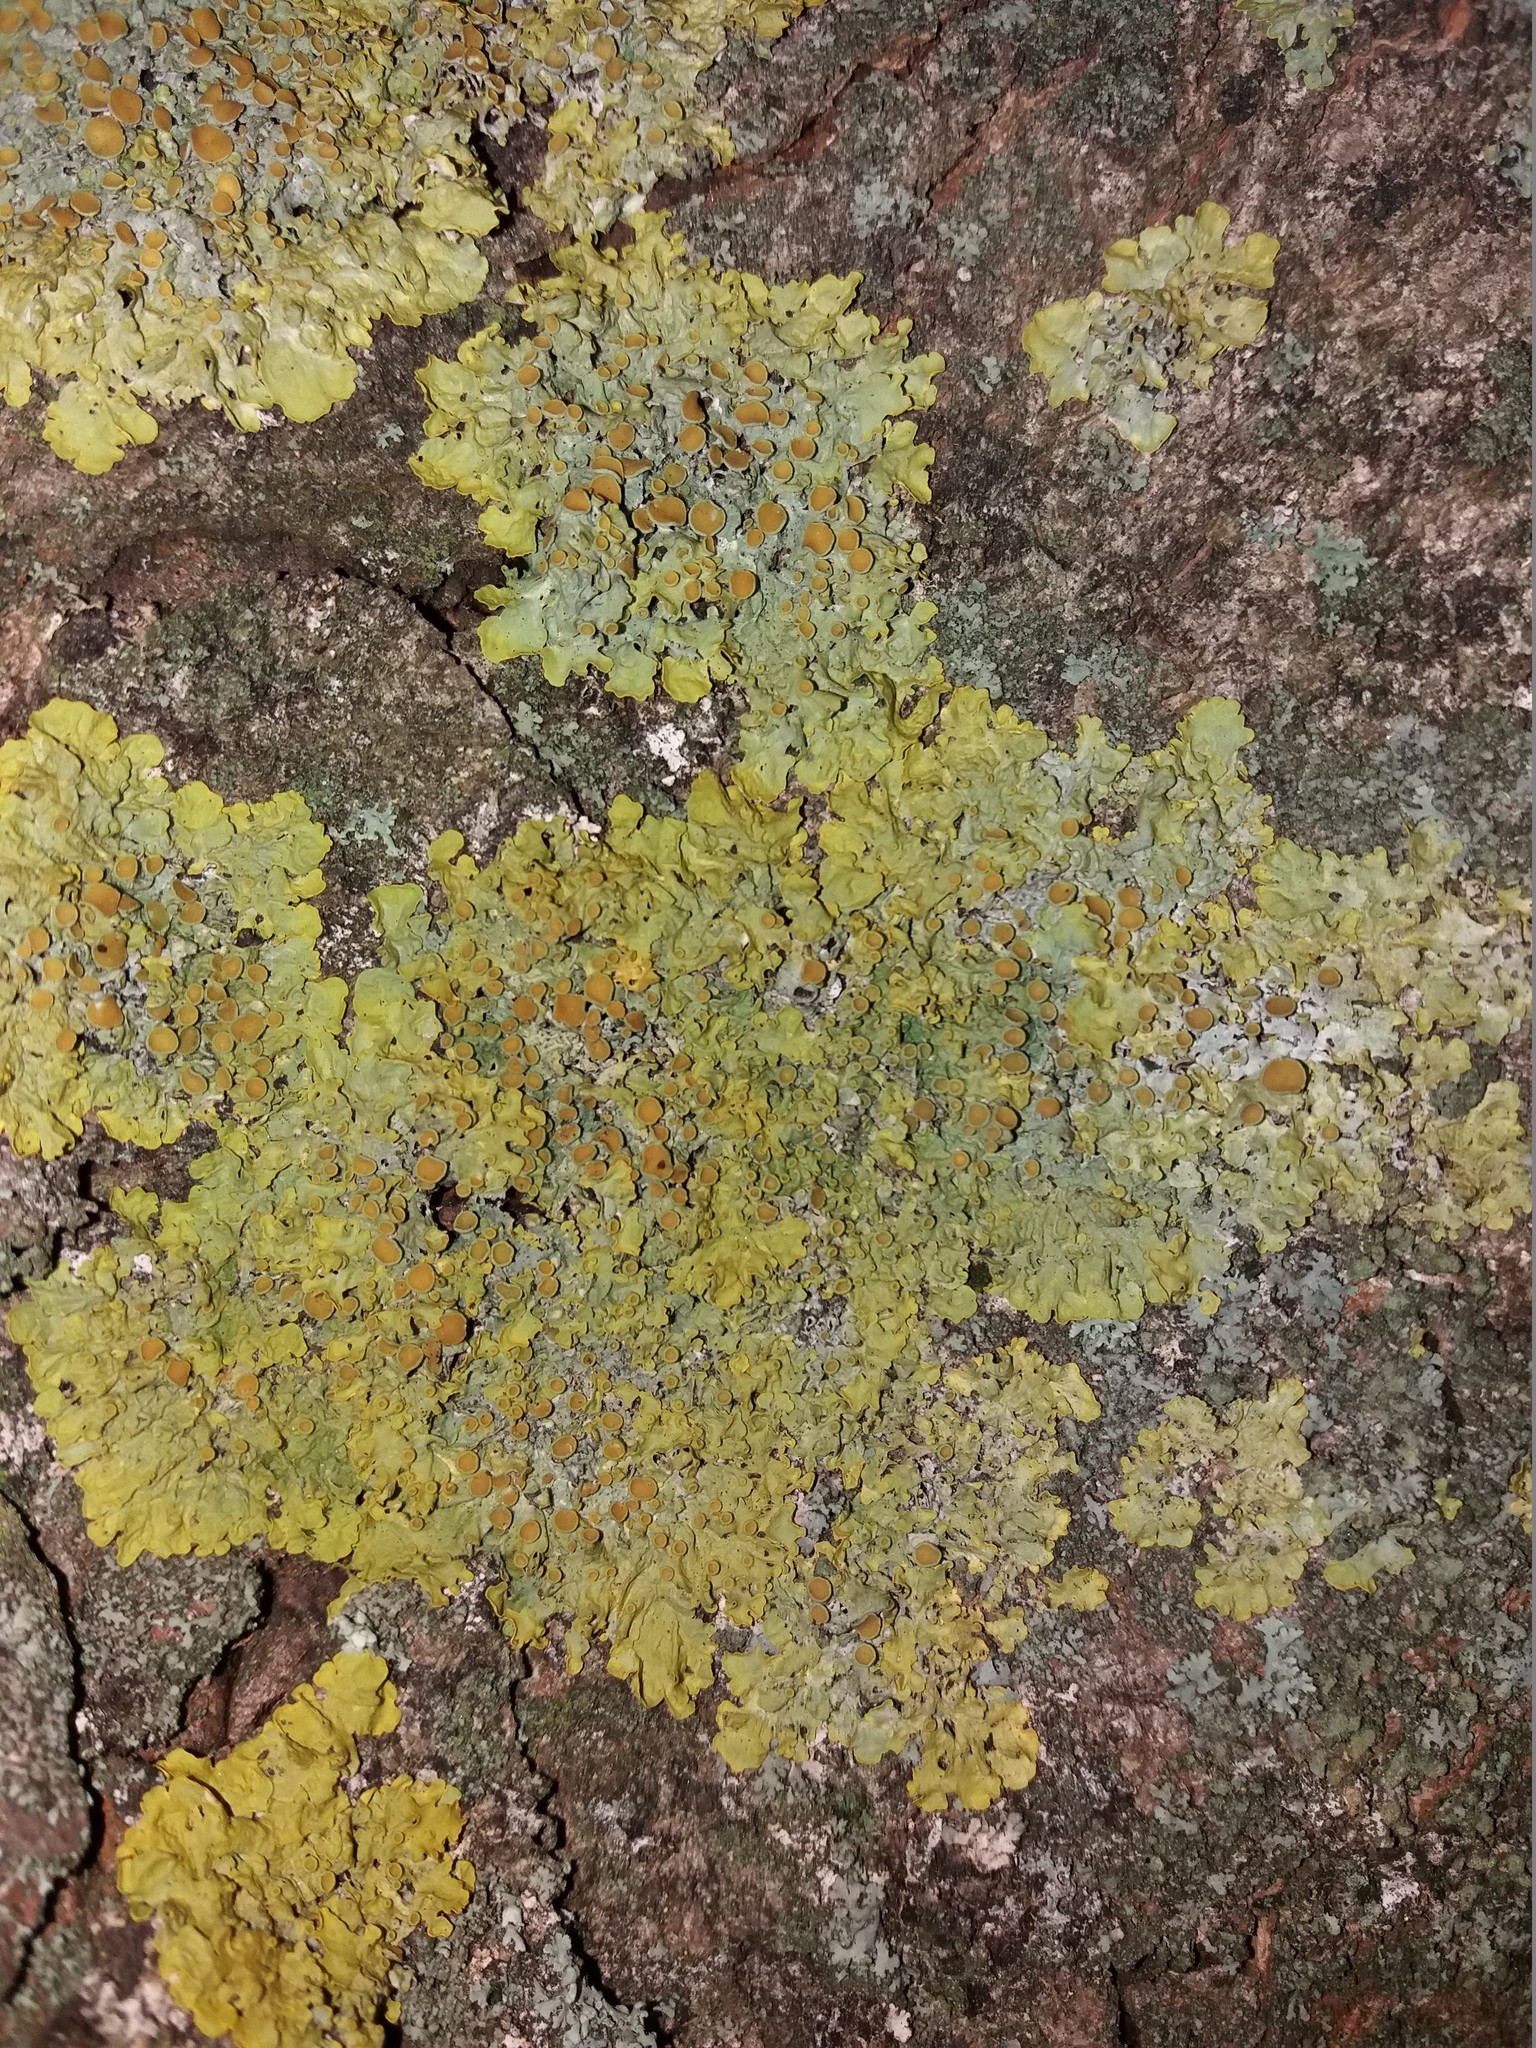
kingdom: Fungi
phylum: Ascomycota
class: Lecanoromycetes
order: Teloschistales
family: Teloschistaceae
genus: Xanthoria
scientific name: Xanthoria parietina
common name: Common orange lichen
